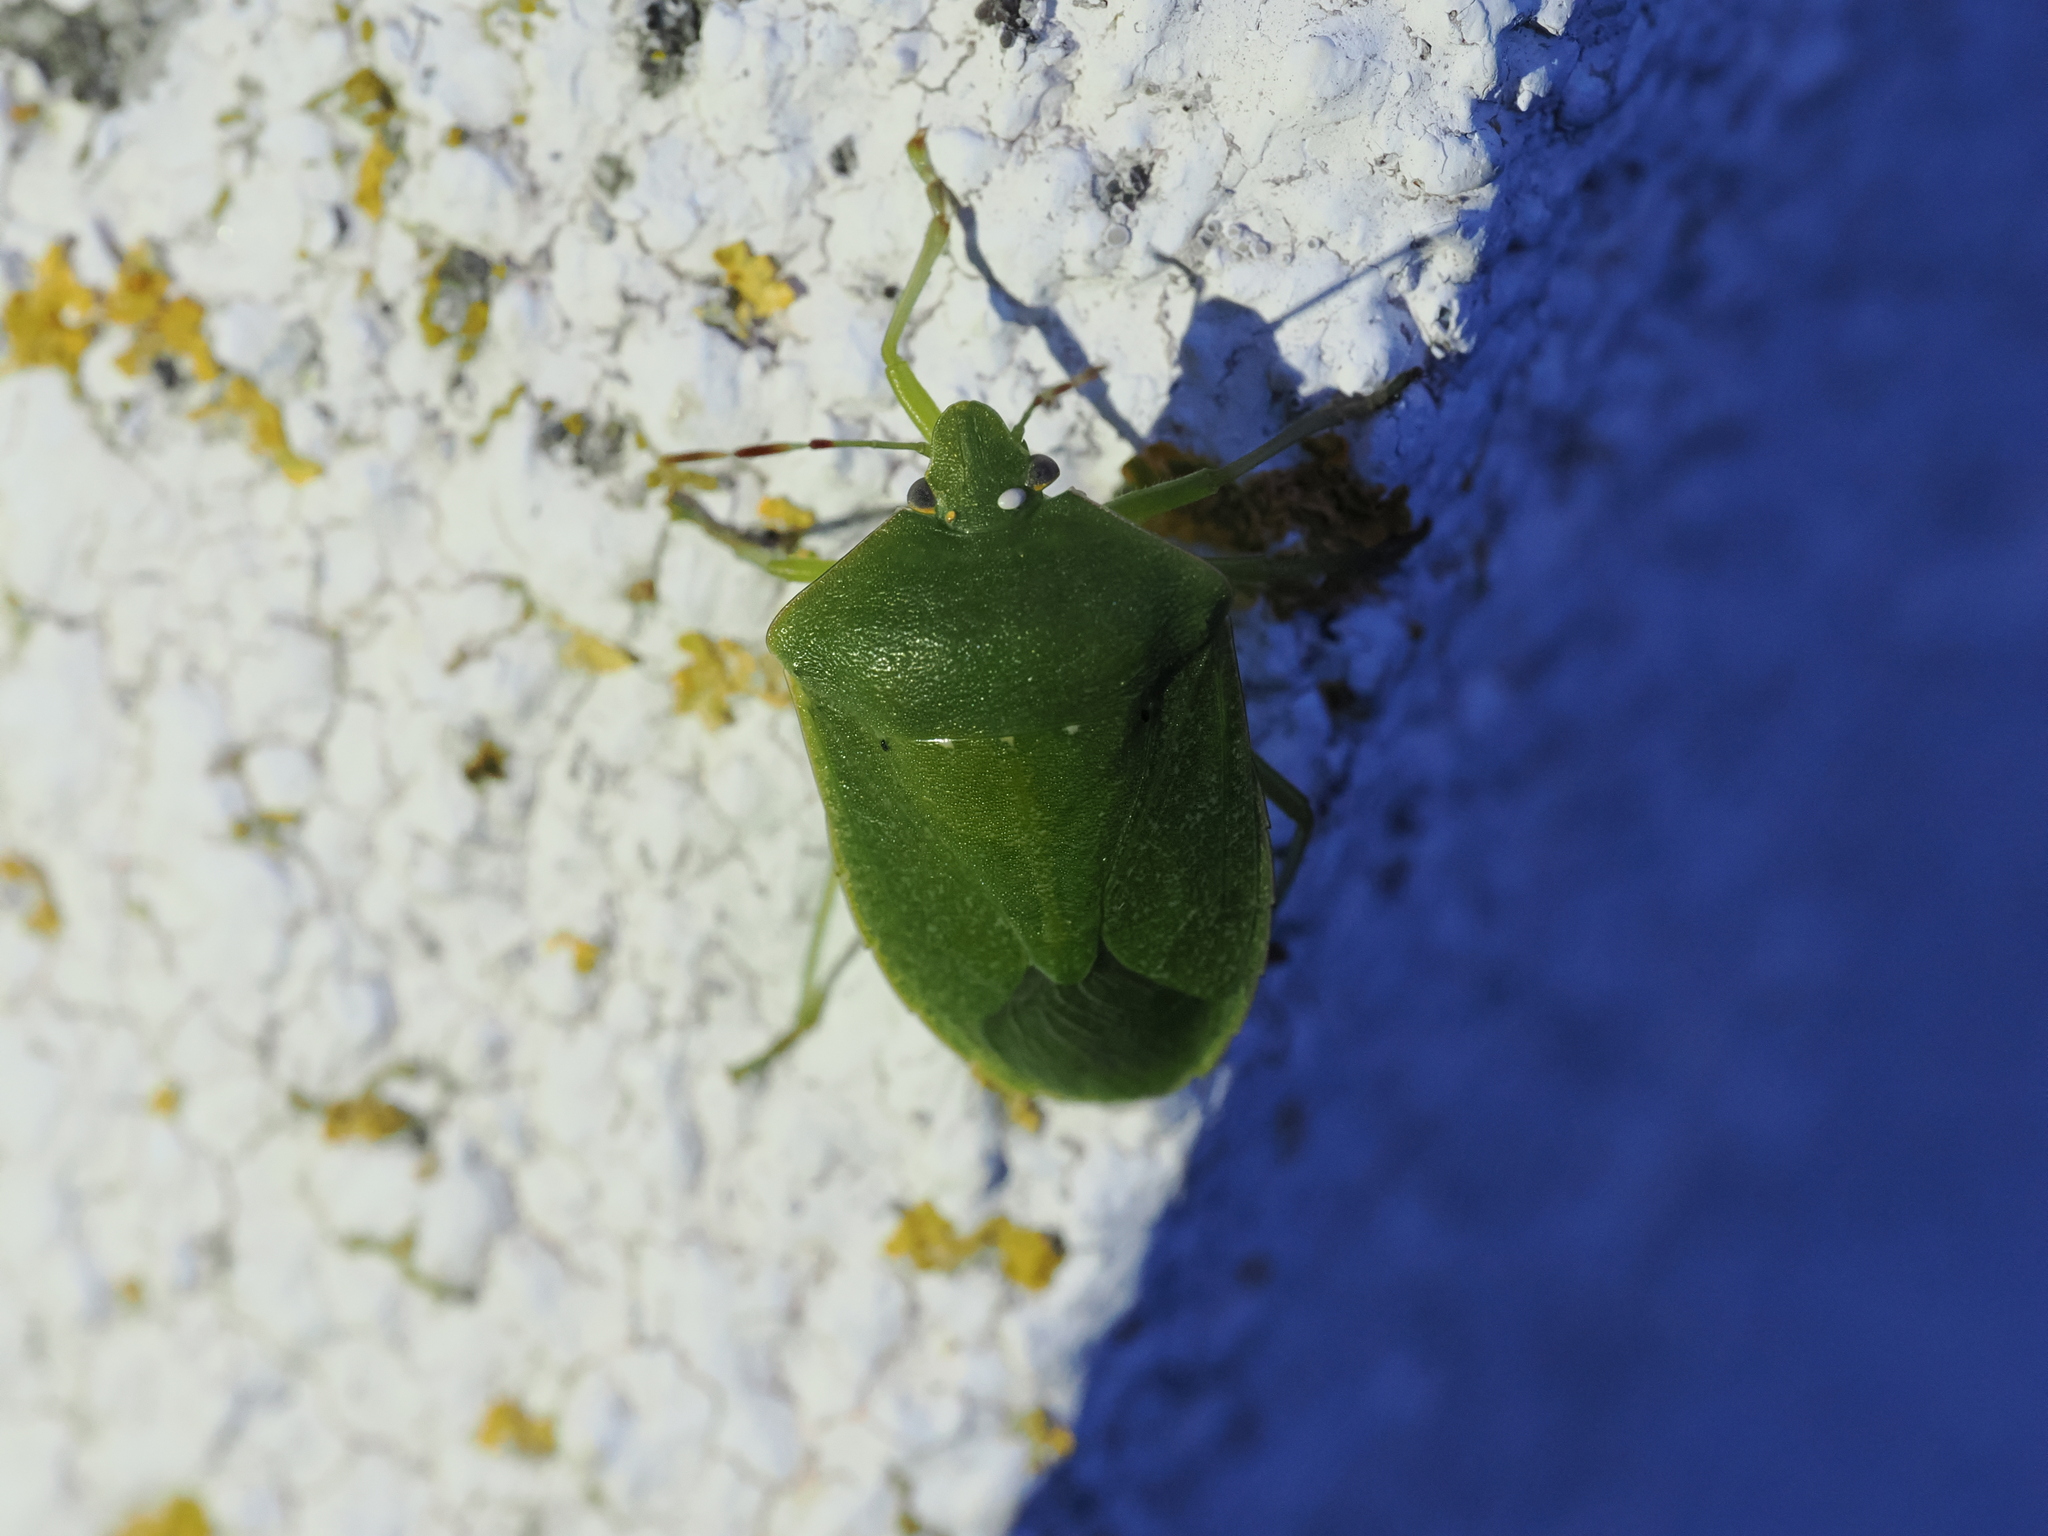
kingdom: Animalia
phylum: Arthropoda
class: Insecta
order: Hemiptera
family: Pentatomidae
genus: Nezara
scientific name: Nezara viridula
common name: Southern green stink bug
